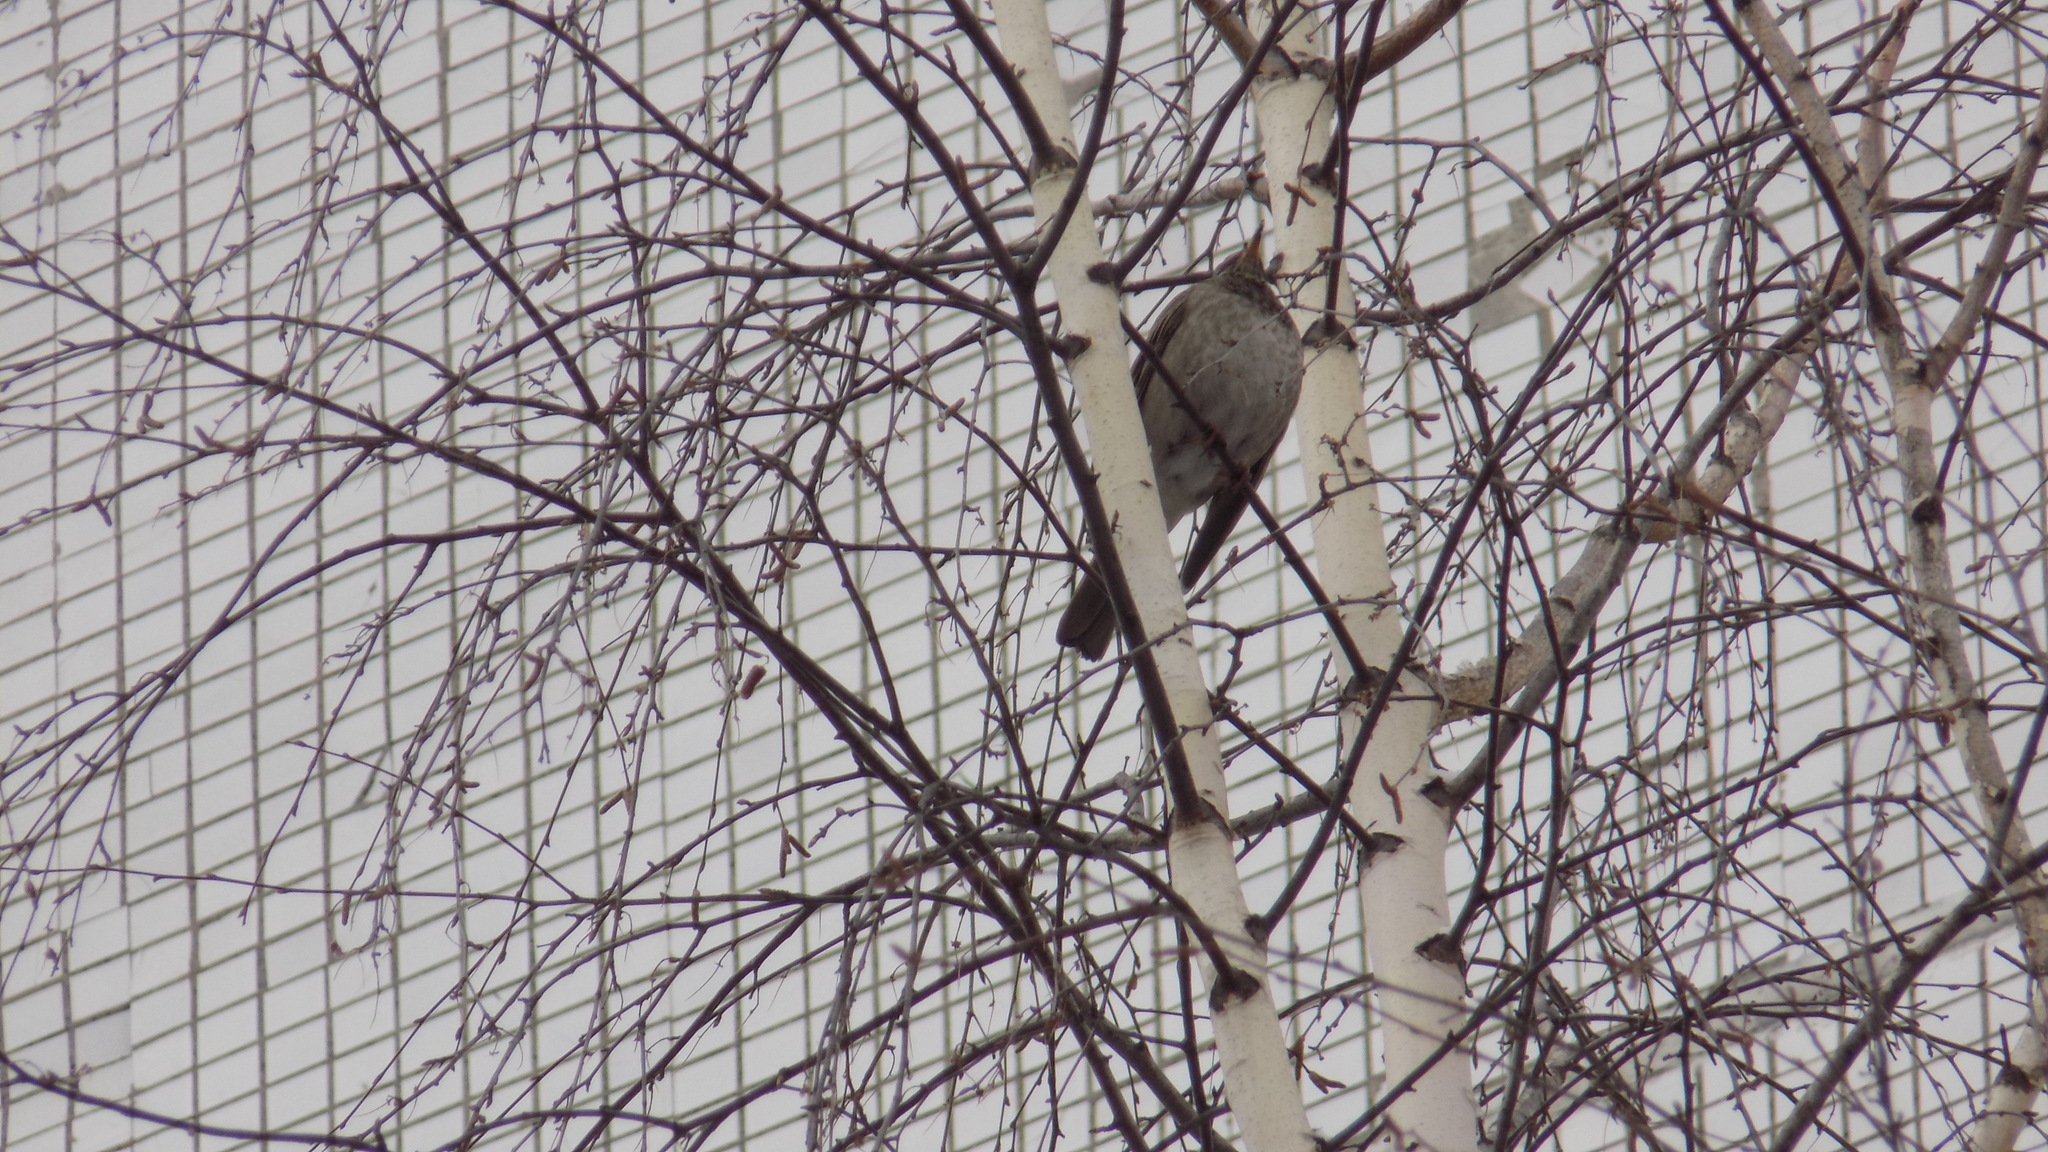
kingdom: Animalia
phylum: Chordata
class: Aves
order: Passeriformes
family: Turdidae
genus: Turdus
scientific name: Turdus atrogularis
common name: Black-throated thrush
